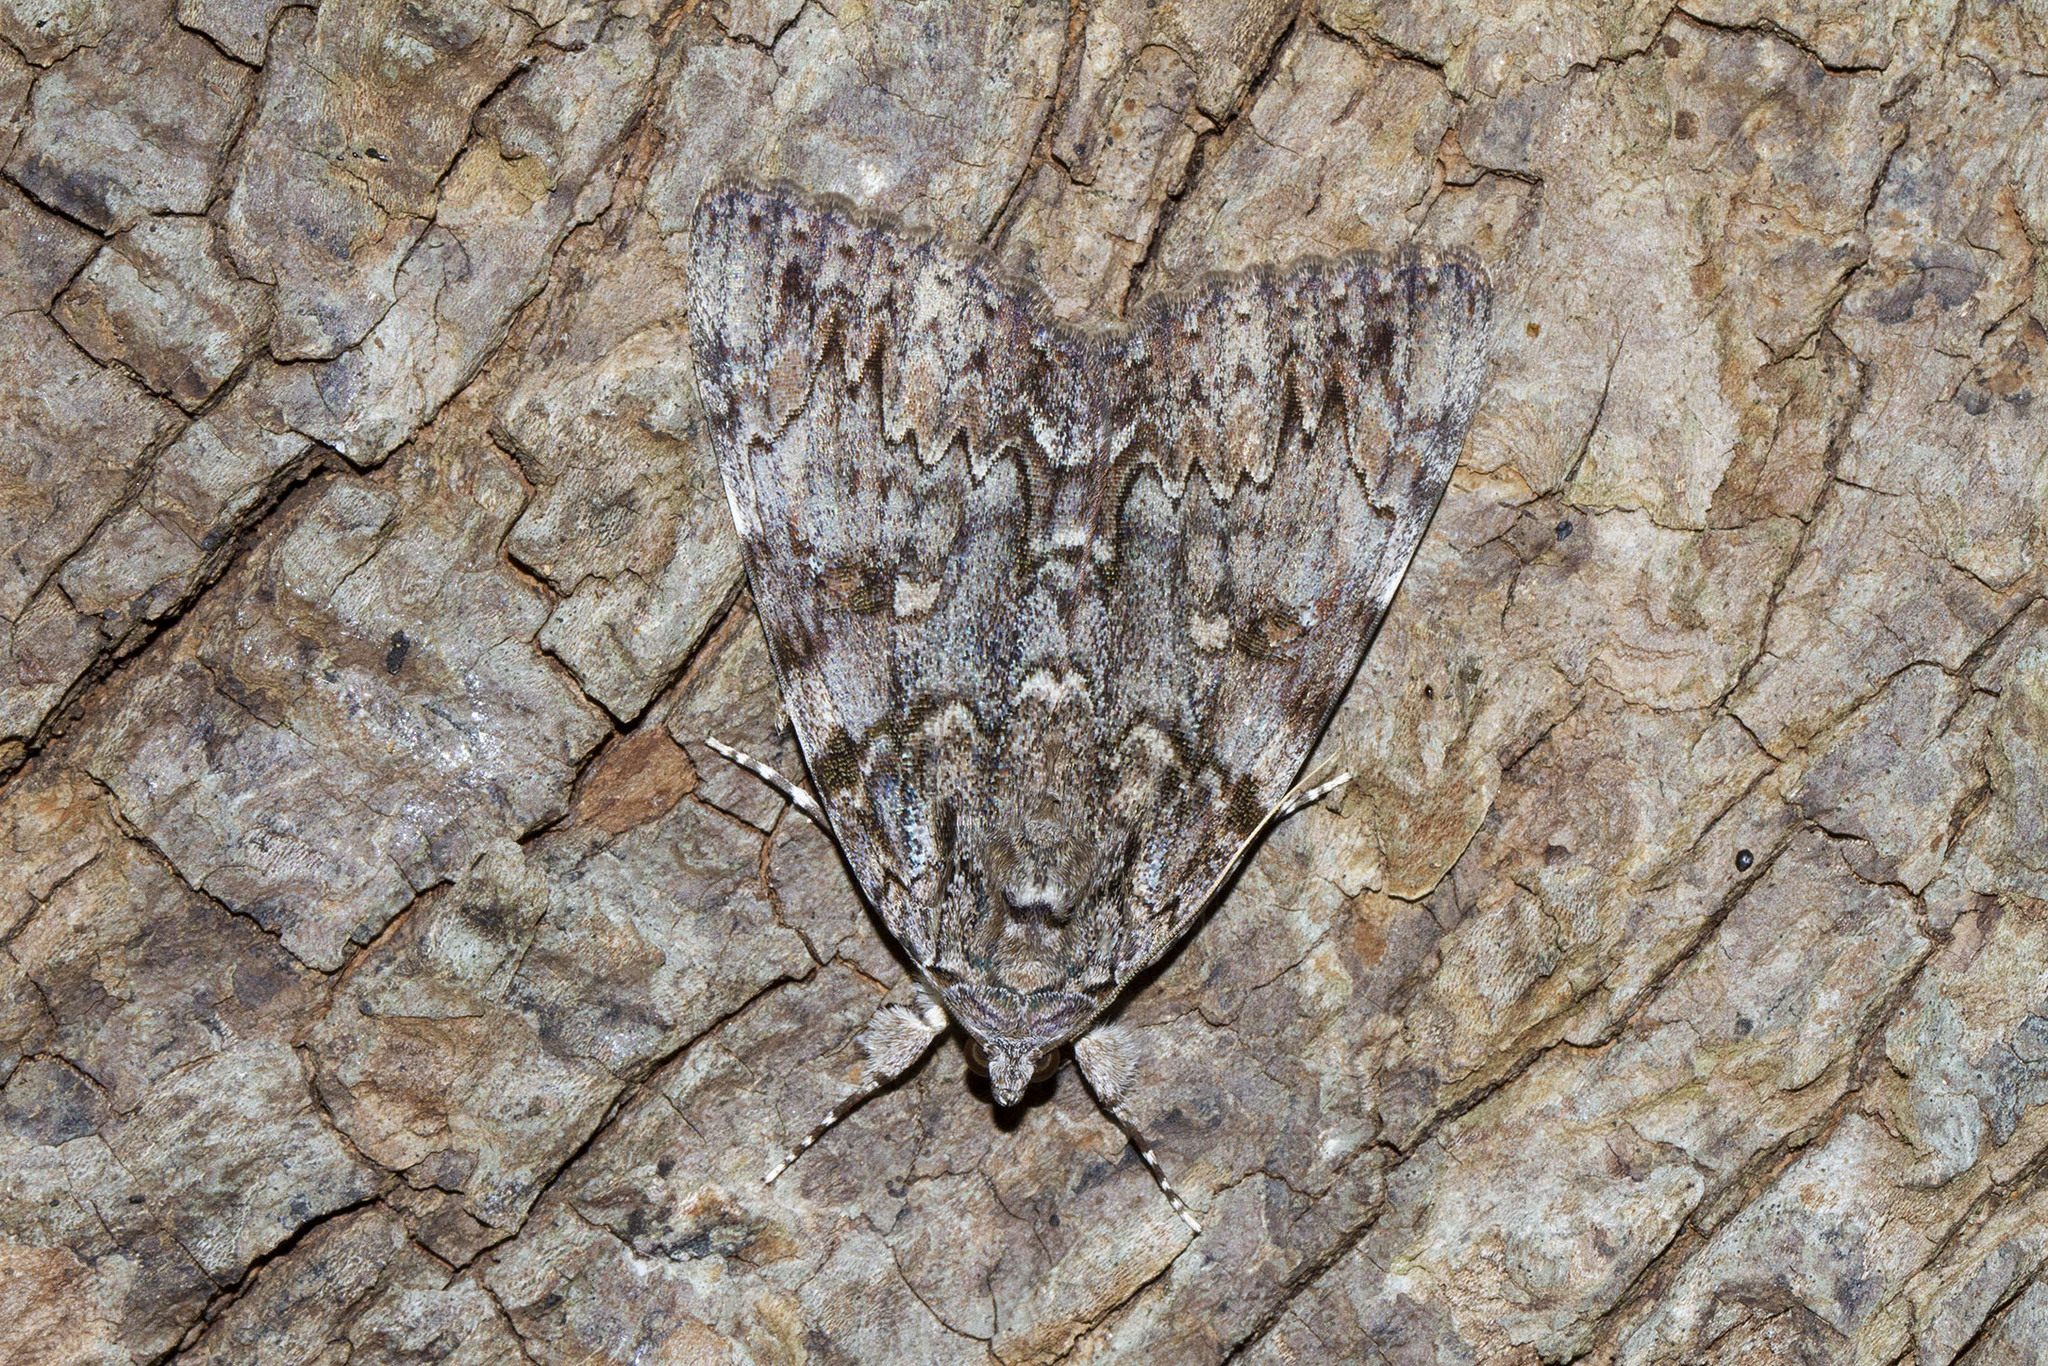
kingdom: Animalia
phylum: Arthropoda
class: Insecta
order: Lepidoptera
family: Erebidae
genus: Catocala
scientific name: Catocala palaeogama
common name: Oldwife underwing
